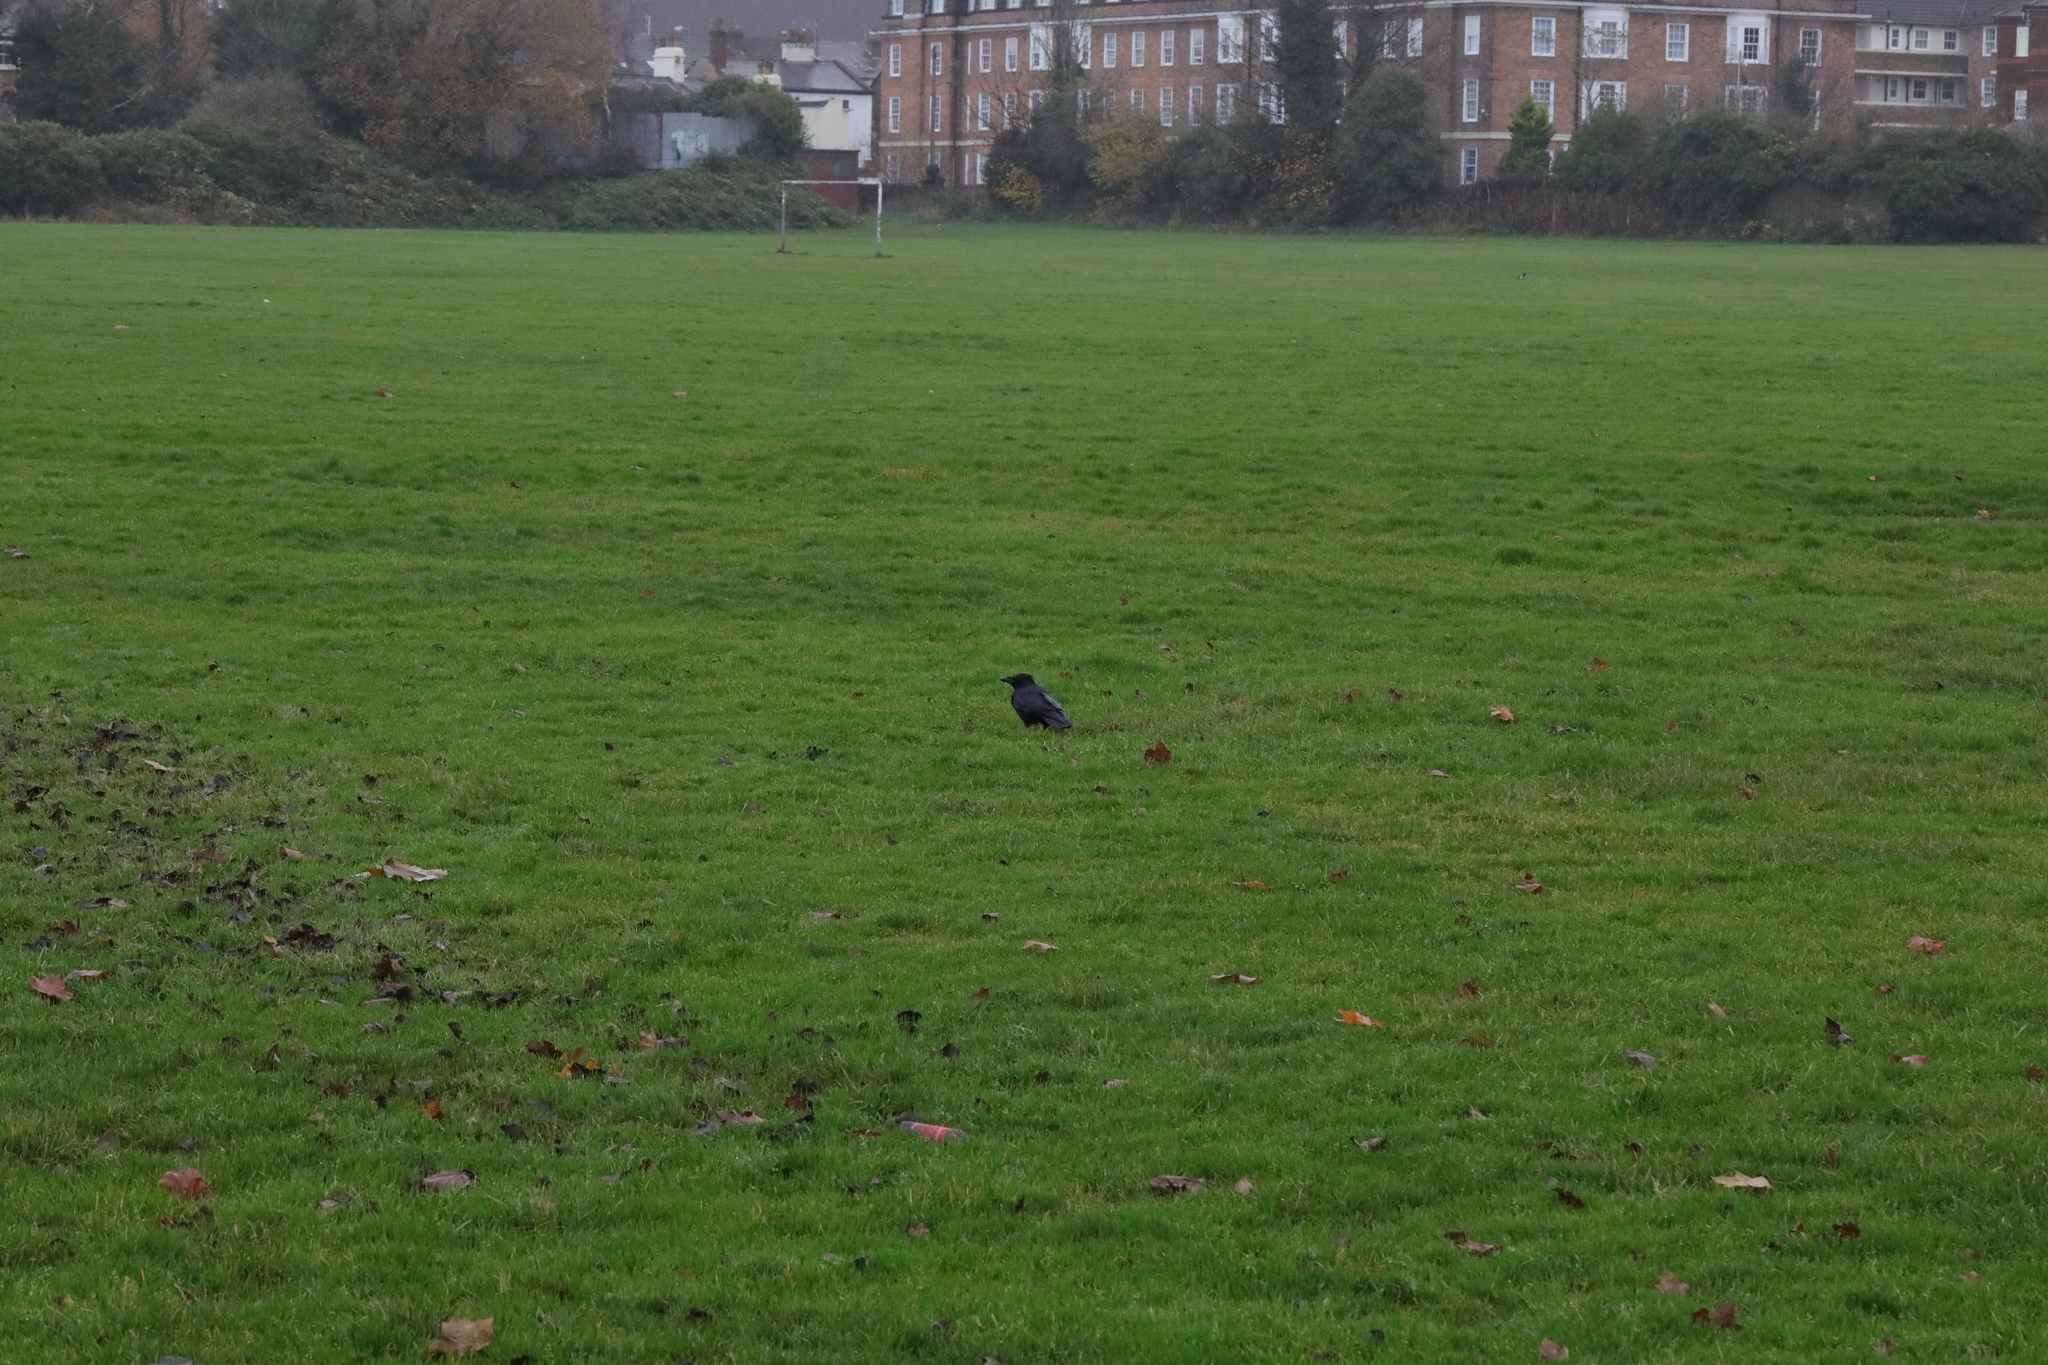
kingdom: Animalia
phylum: Chordata
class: Aves
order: Passeriformes
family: Corvidae
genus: Corvus
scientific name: Corvus corone
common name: Carrion crow
